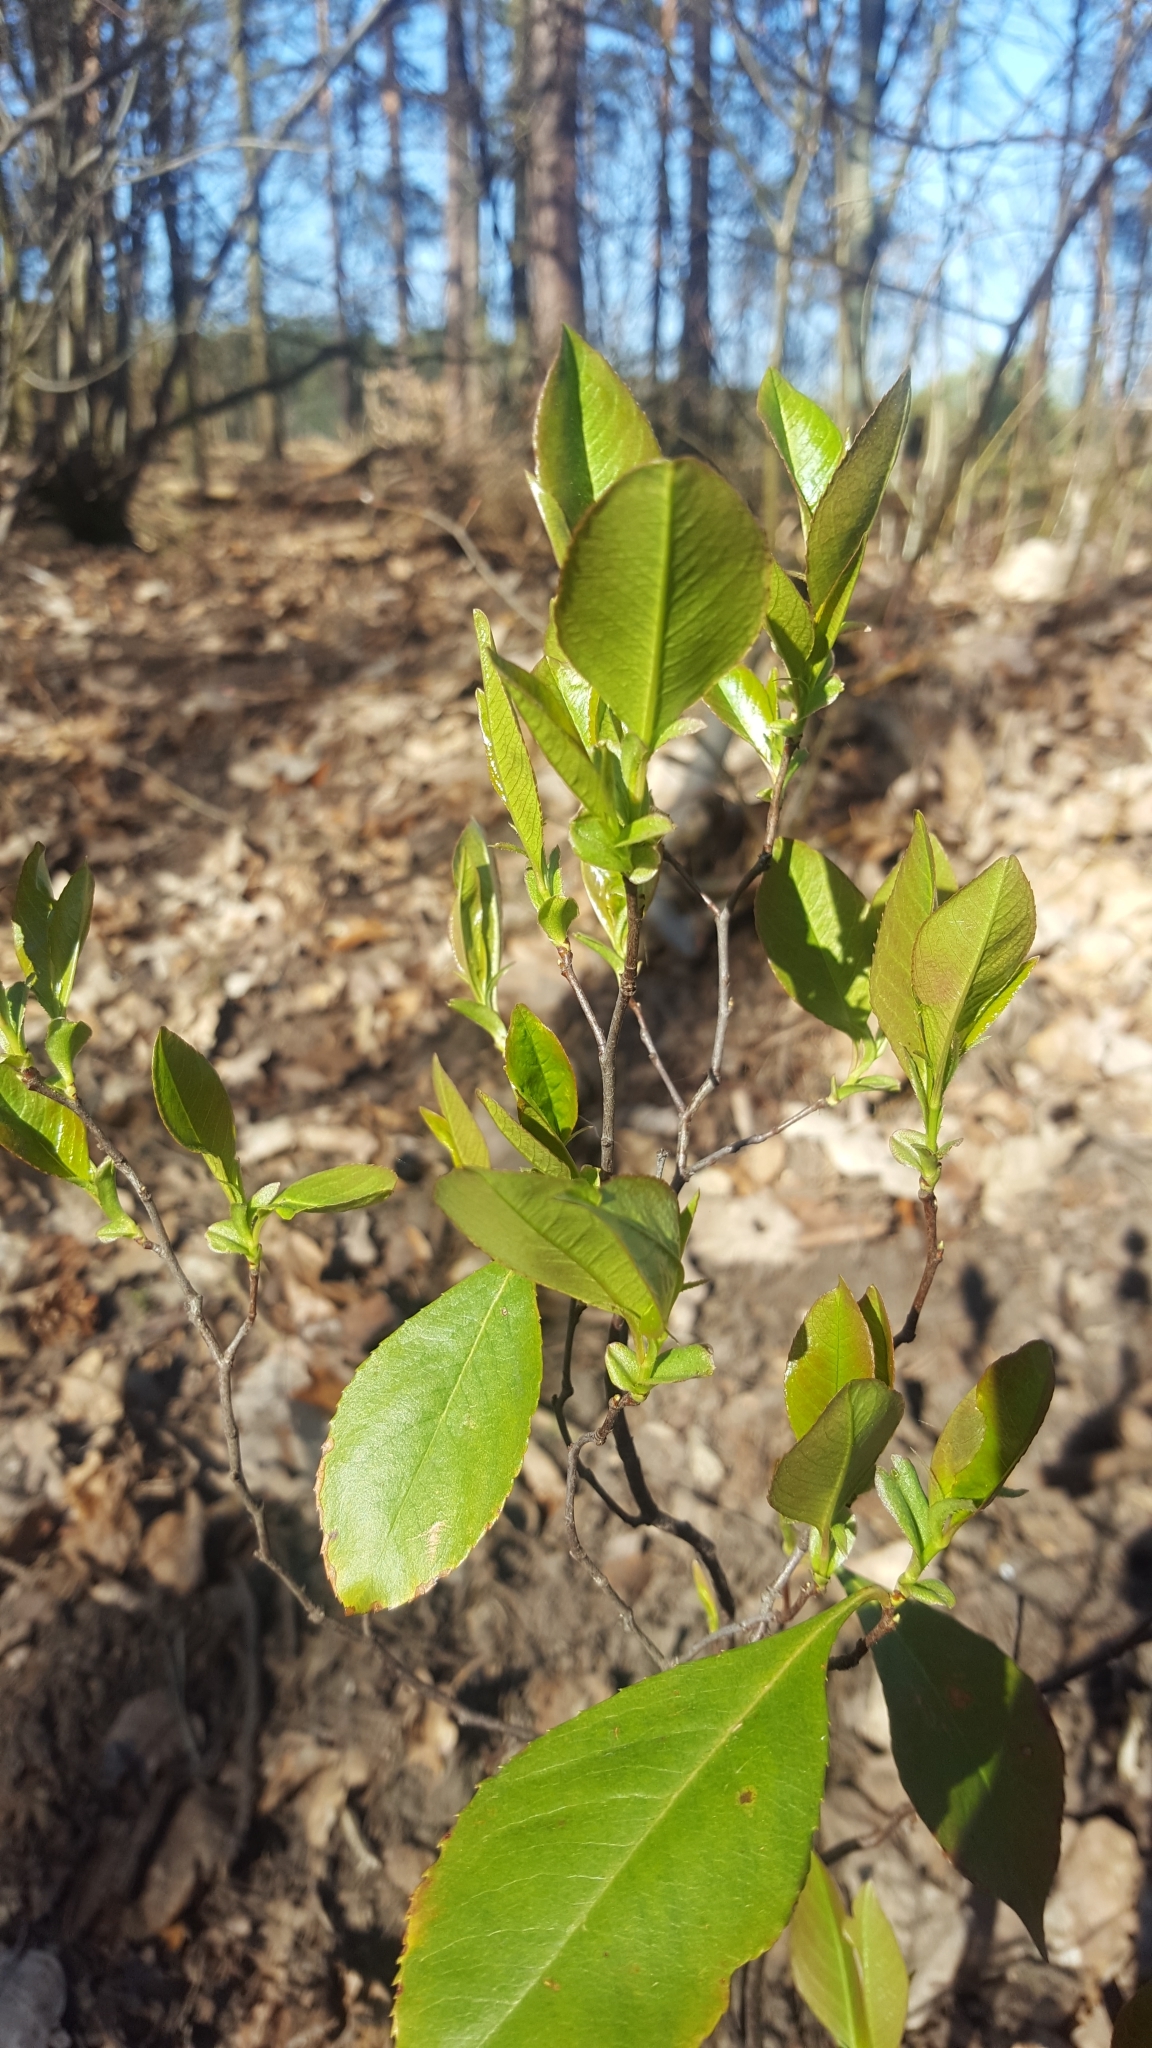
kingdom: Plantae
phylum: Tracheophyta
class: Magnoliopsida
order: Rosales
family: Rosaceae
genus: Prunus
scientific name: Prunus serotina
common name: Black cherry
